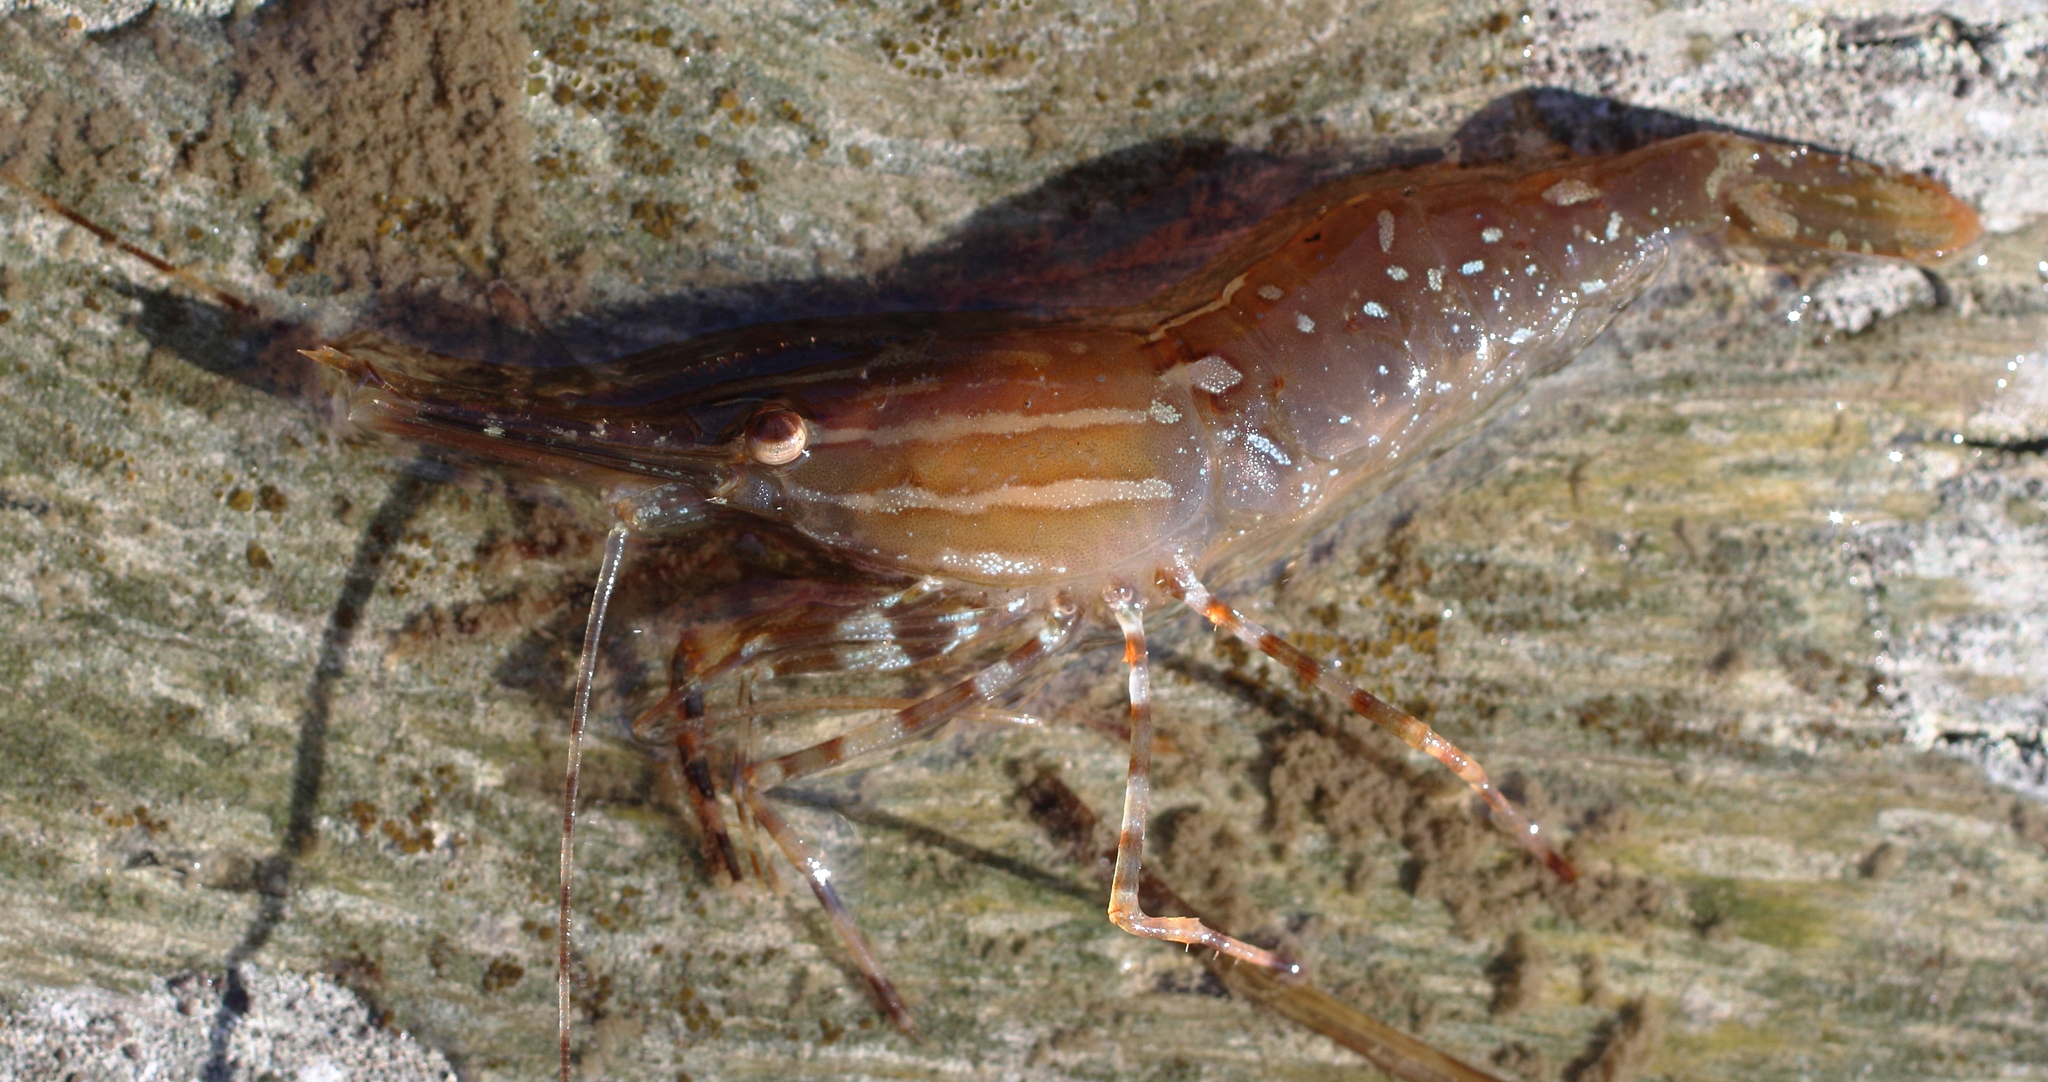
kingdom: Animalia
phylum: Arthropoda
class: Malacostraca
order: Decapoda
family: Pandalidae
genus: Pandalus
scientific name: Pandalus danae
